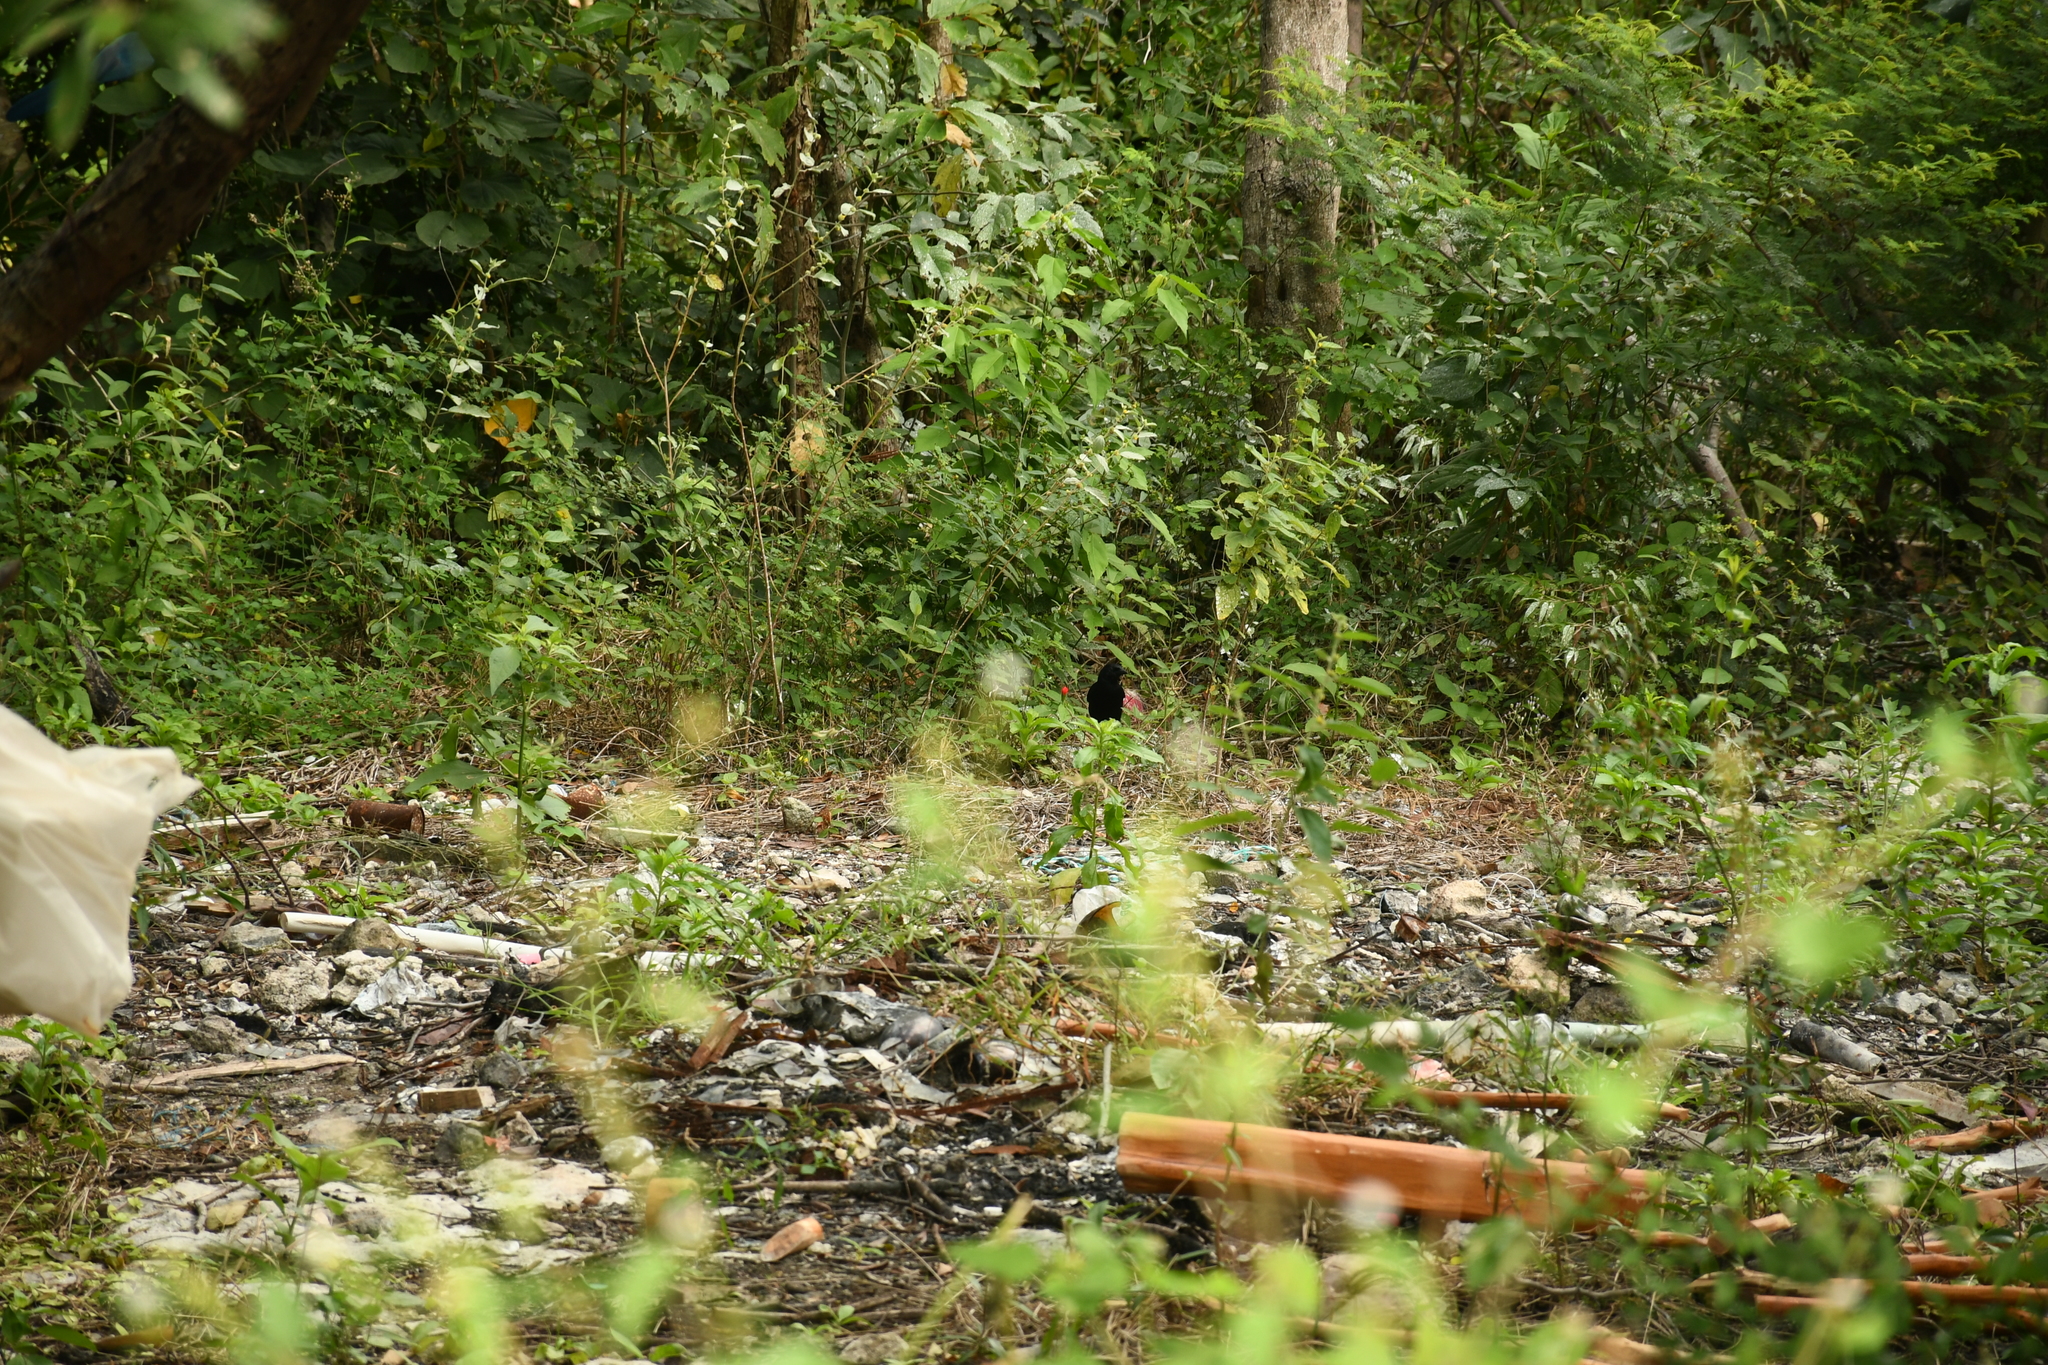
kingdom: Animalia
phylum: Chordata
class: Aves
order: Passeriformes
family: Icteridae
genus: Dives
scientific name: Dives dives
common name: Melodious blackbird
